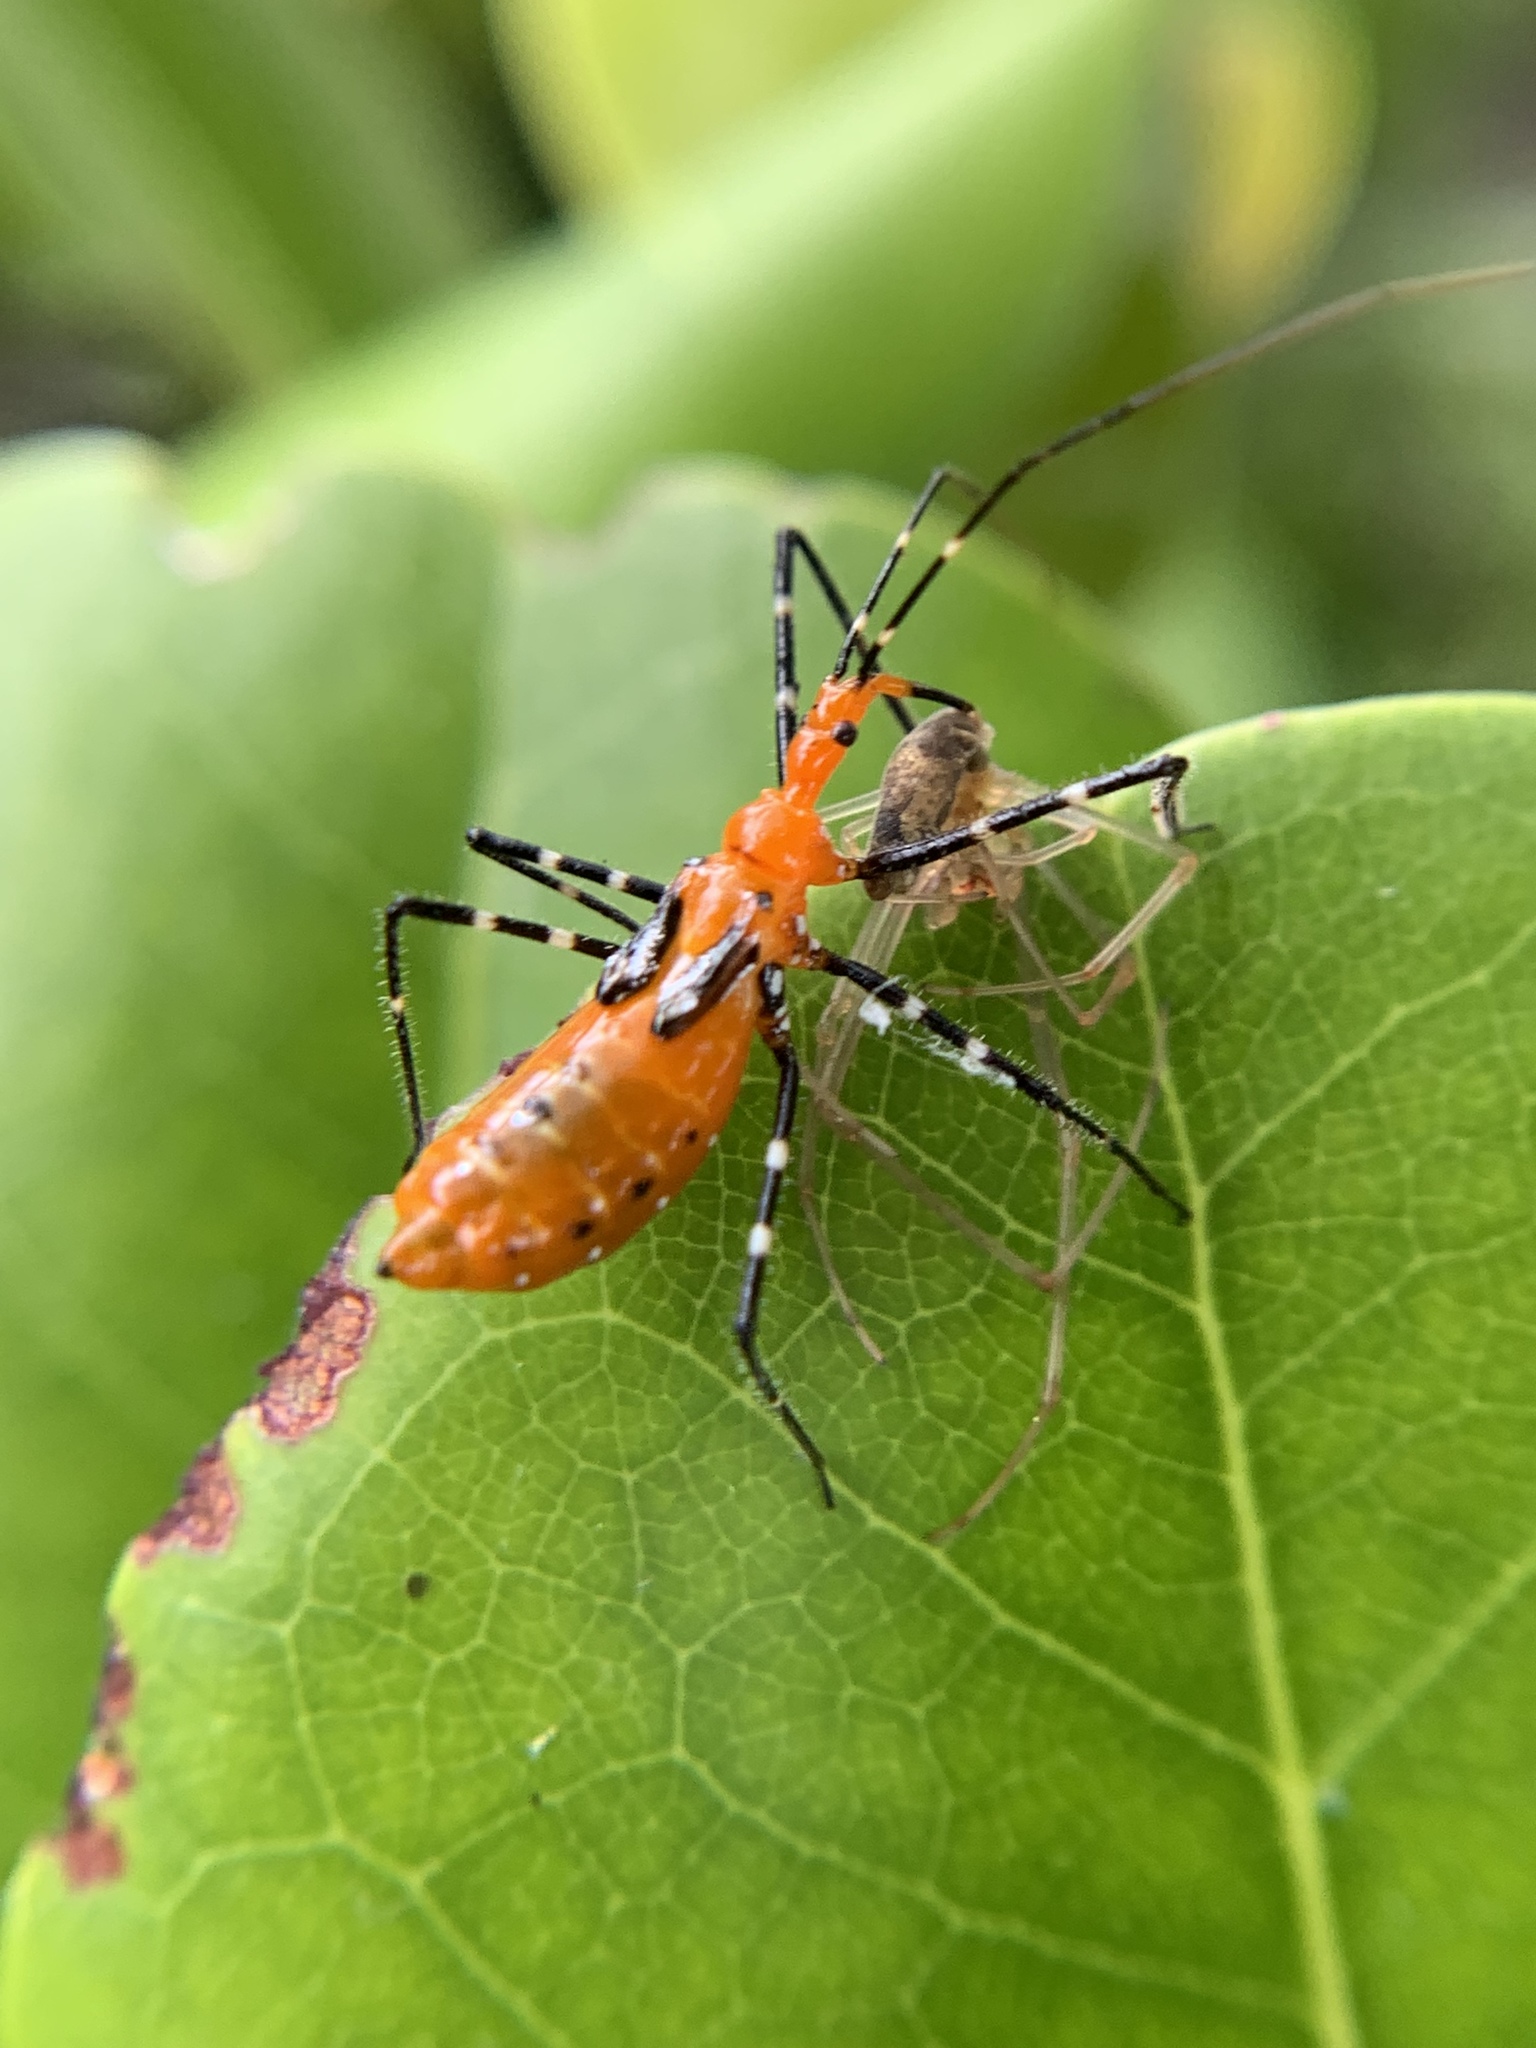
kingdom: Animalia
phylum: Arthropoda
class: Insecta
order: Hemiptera
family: Reduviidae
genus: Zelus
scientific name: Zelus longipes
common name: Milkweed assassin bug
